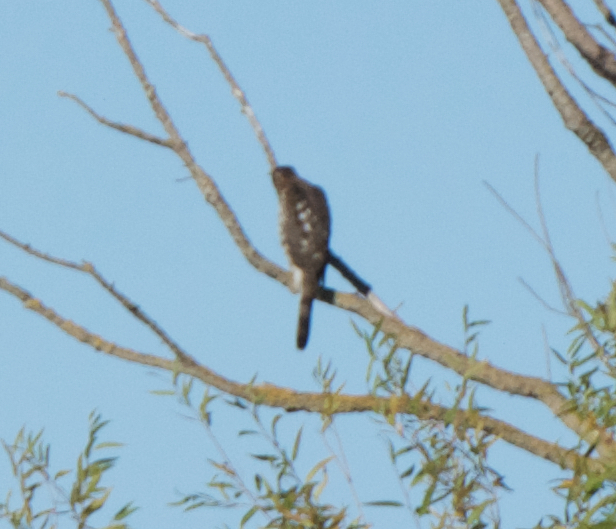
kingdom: Animalia
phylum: Chordata
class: Aves
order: Accipitriformes
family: Accipitridae
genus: Accipiter
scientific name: Accipiter cooperii
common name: Cooper's hawk
